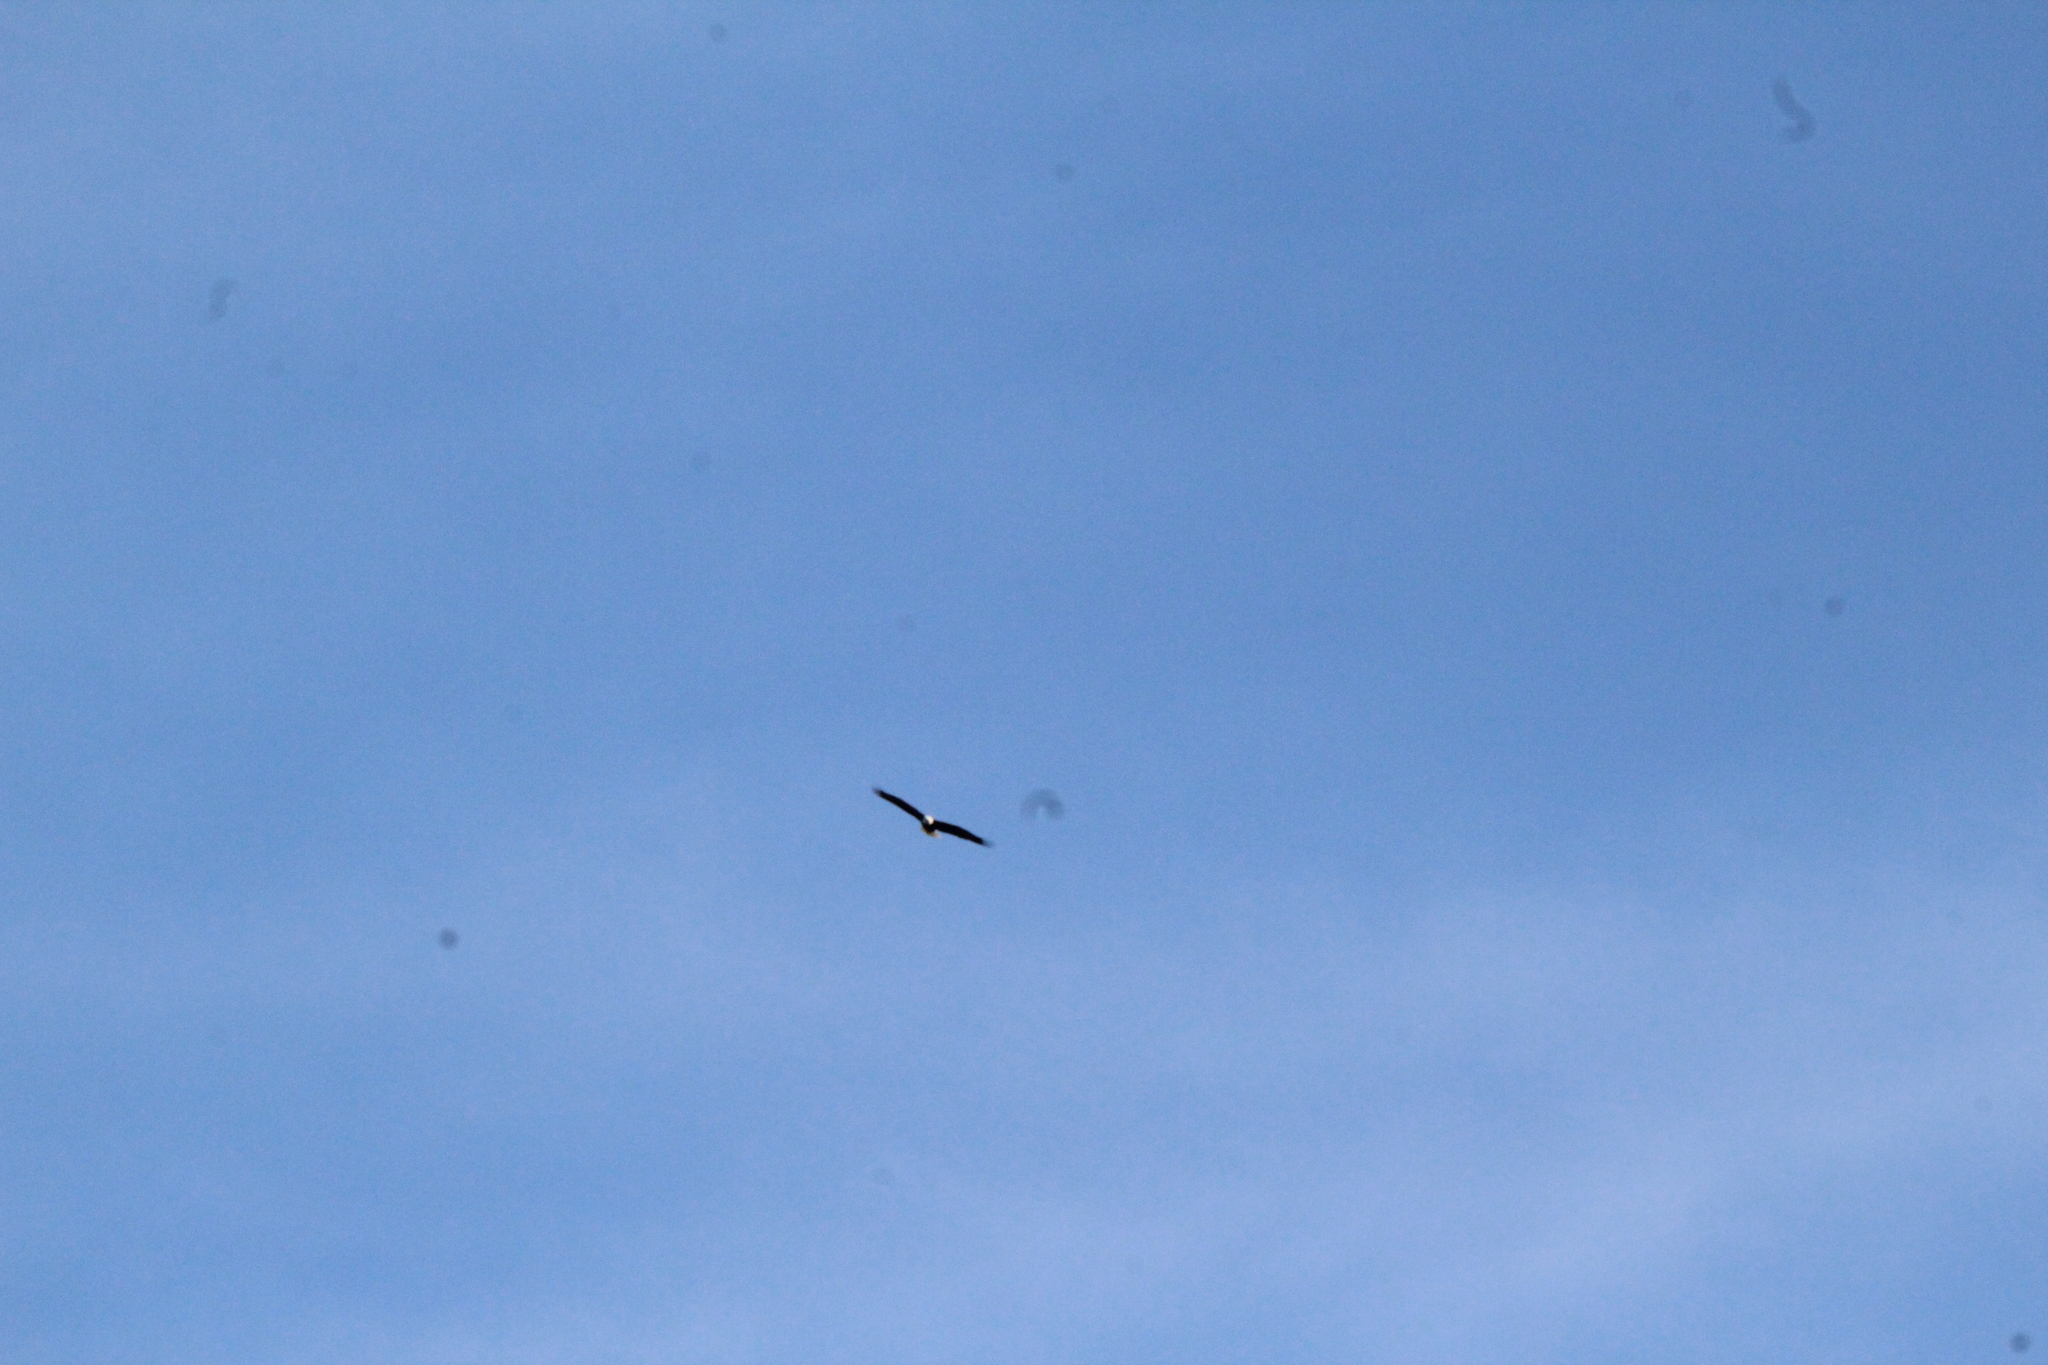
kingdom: Animalia
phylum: Chordata
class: Aves
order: Accipitriformes
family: Accipitridae
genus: Haliaeetus
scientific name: Haliaeetus leucocephalus
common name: Bald eagle
